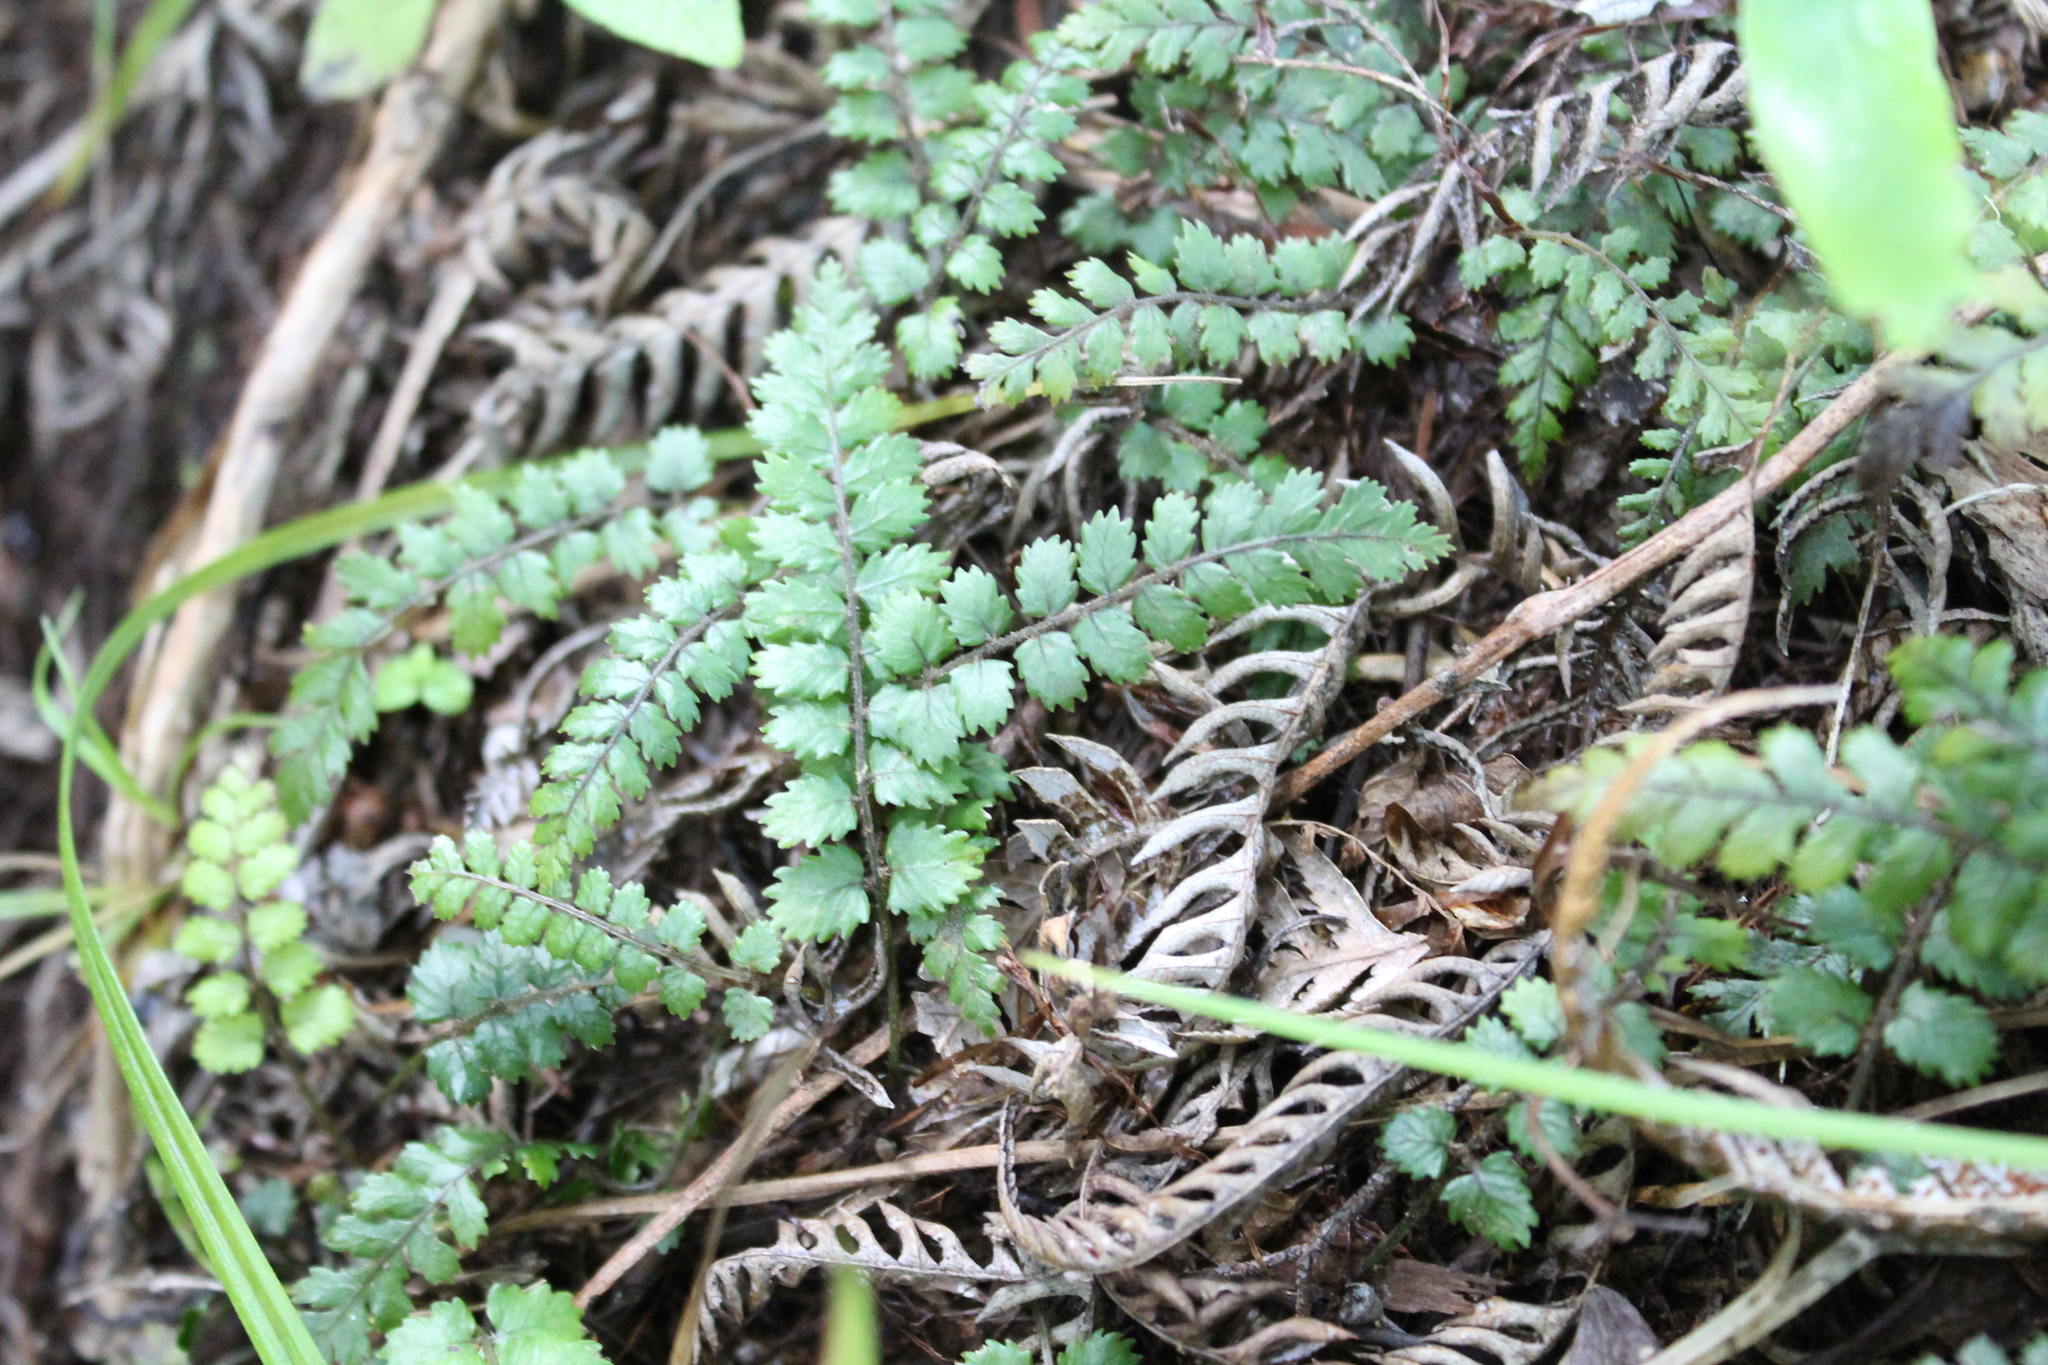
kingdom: Plantae
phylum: Tracheophyta
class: Polypodiopsida
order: Polypodiales
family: Blechnaceae
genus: Icarus
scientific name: Icarus filiformis
